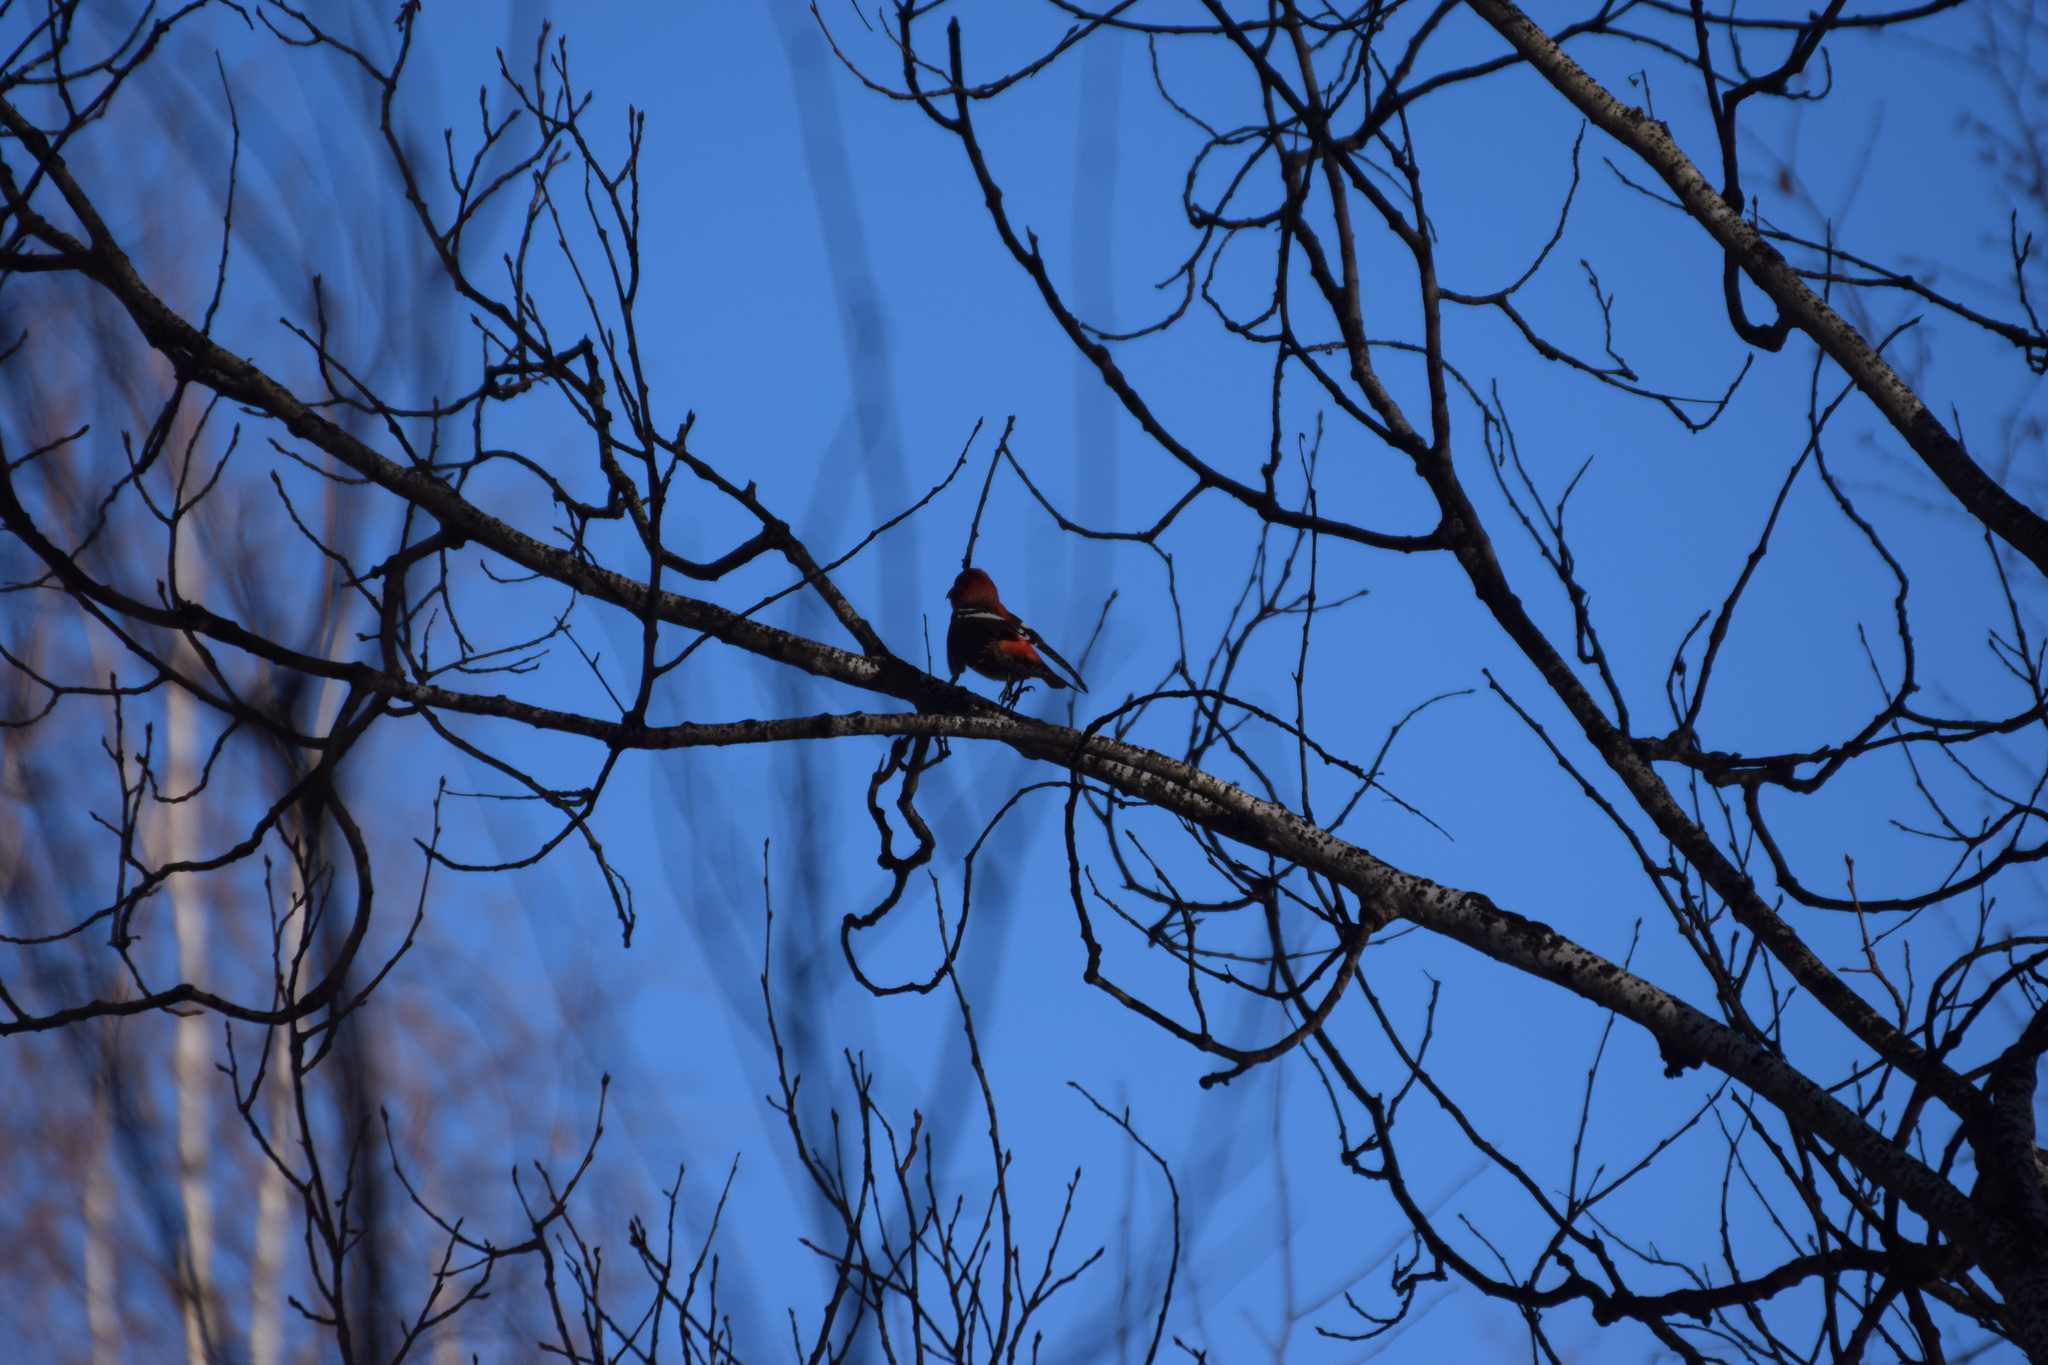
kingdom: Animalia
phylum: Chordata
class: Aves
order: Passeriformes
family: Fringillidae
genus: Loxia
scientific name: Loxia leucoptera
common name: Two-barred crossbill
